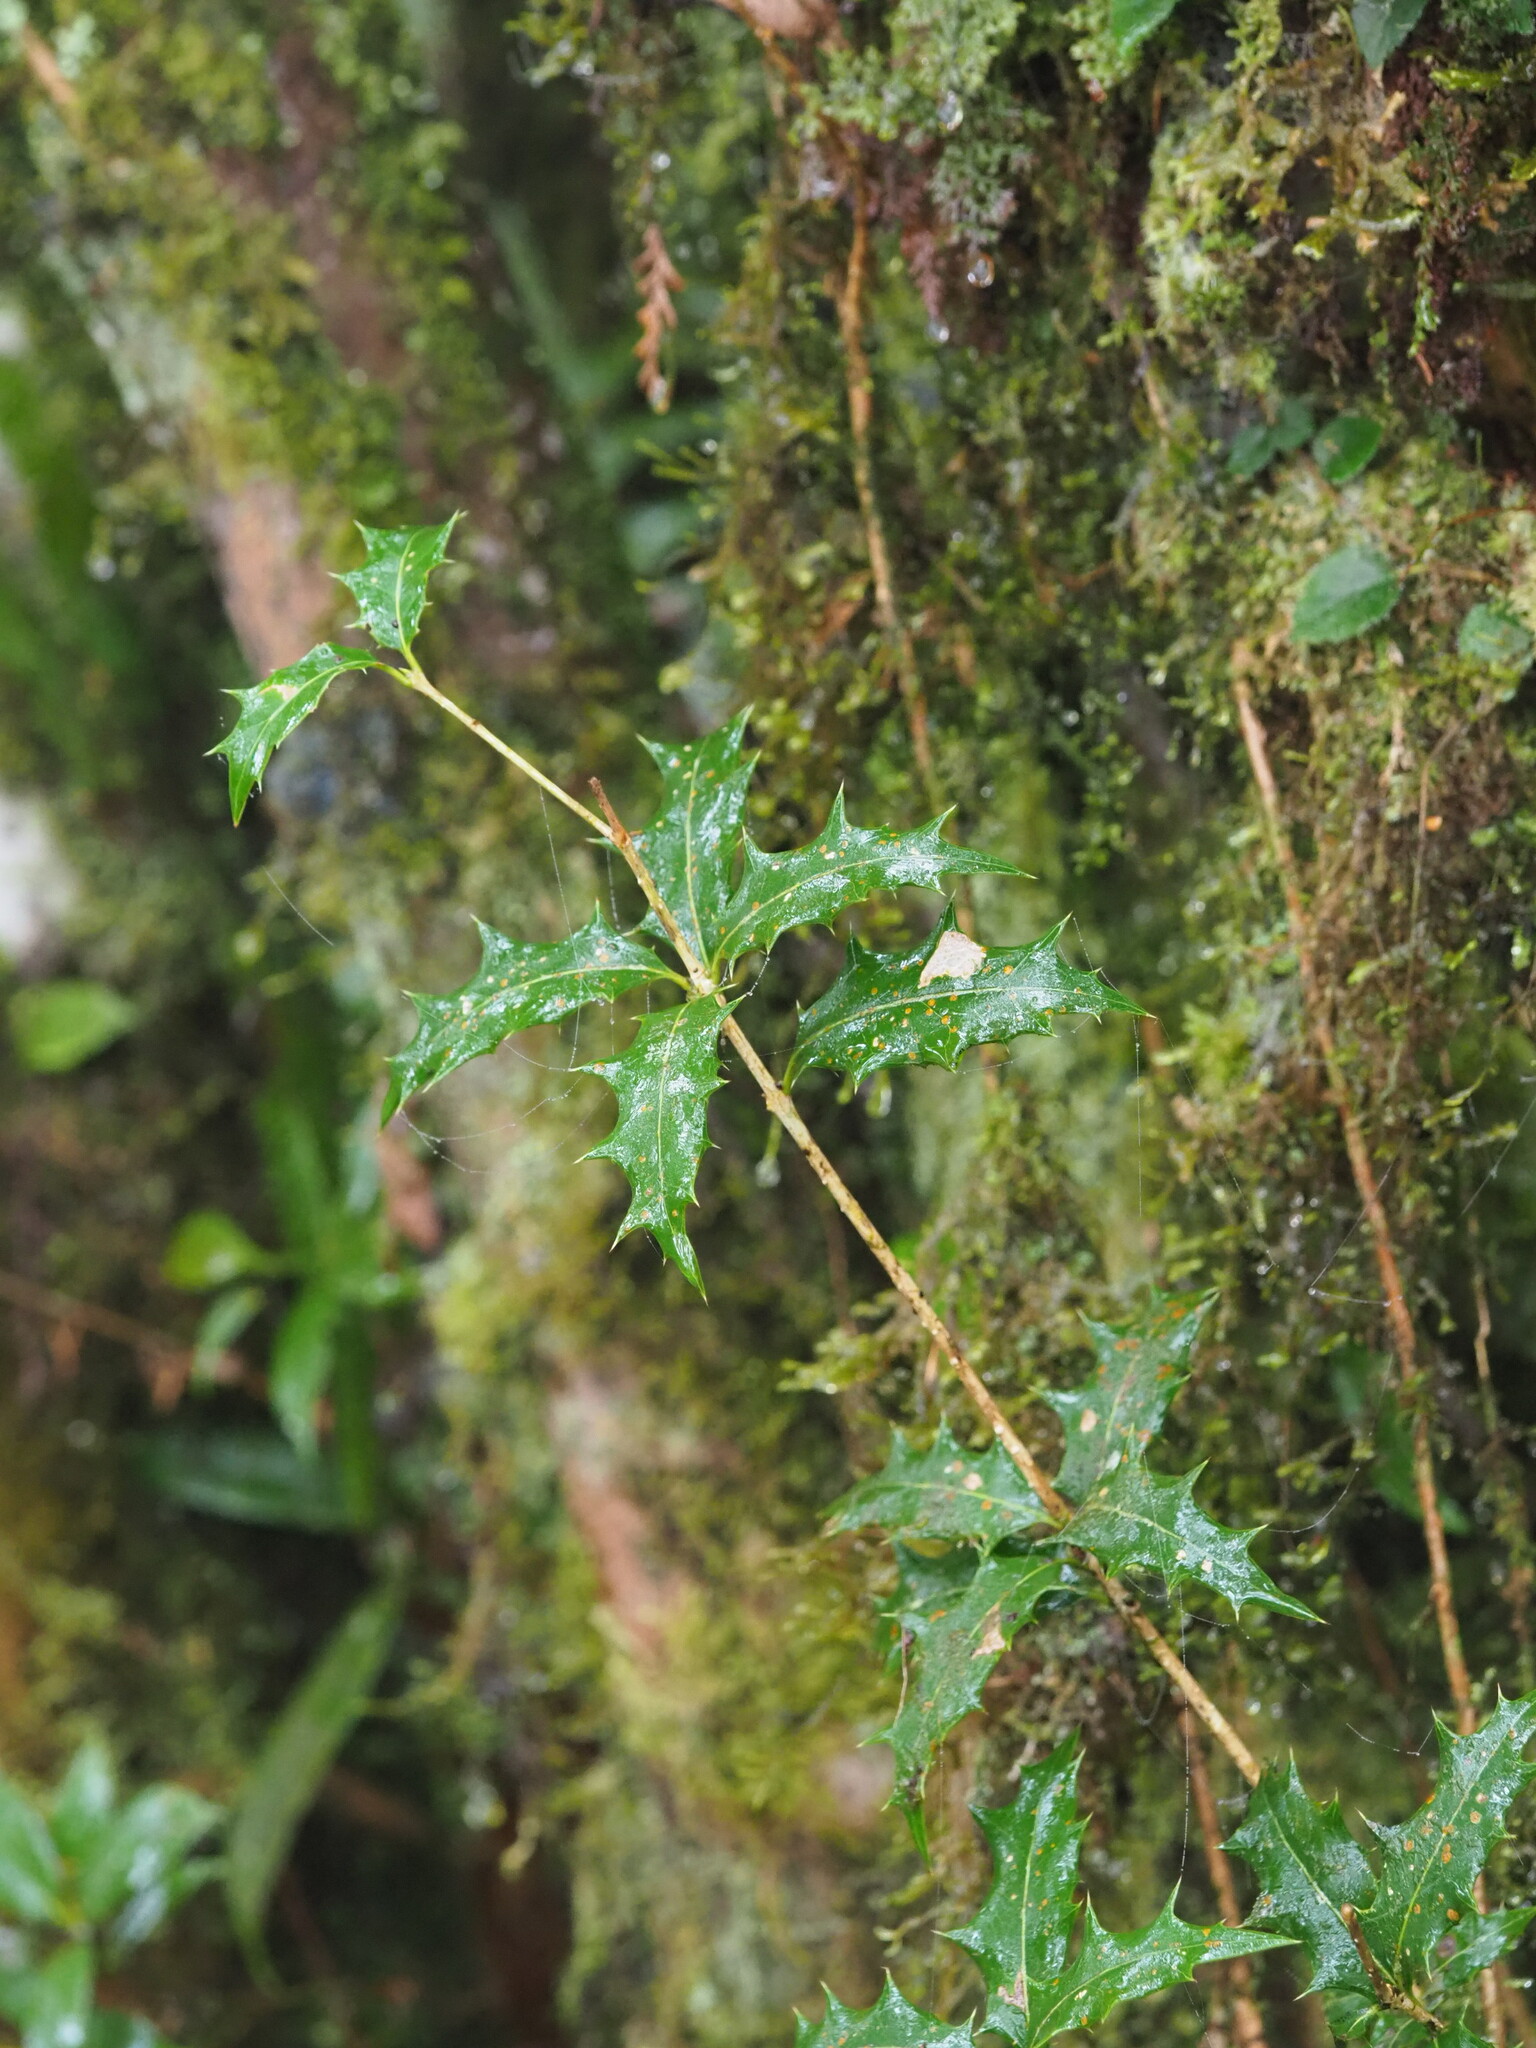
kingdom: Plantae
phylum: Tracheophyta
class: Magnoliopsida
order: Lamiales
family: Oleaceae
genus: Osmanthus
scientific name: Osmanthus heterophyllus
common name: Holly osmanthus
